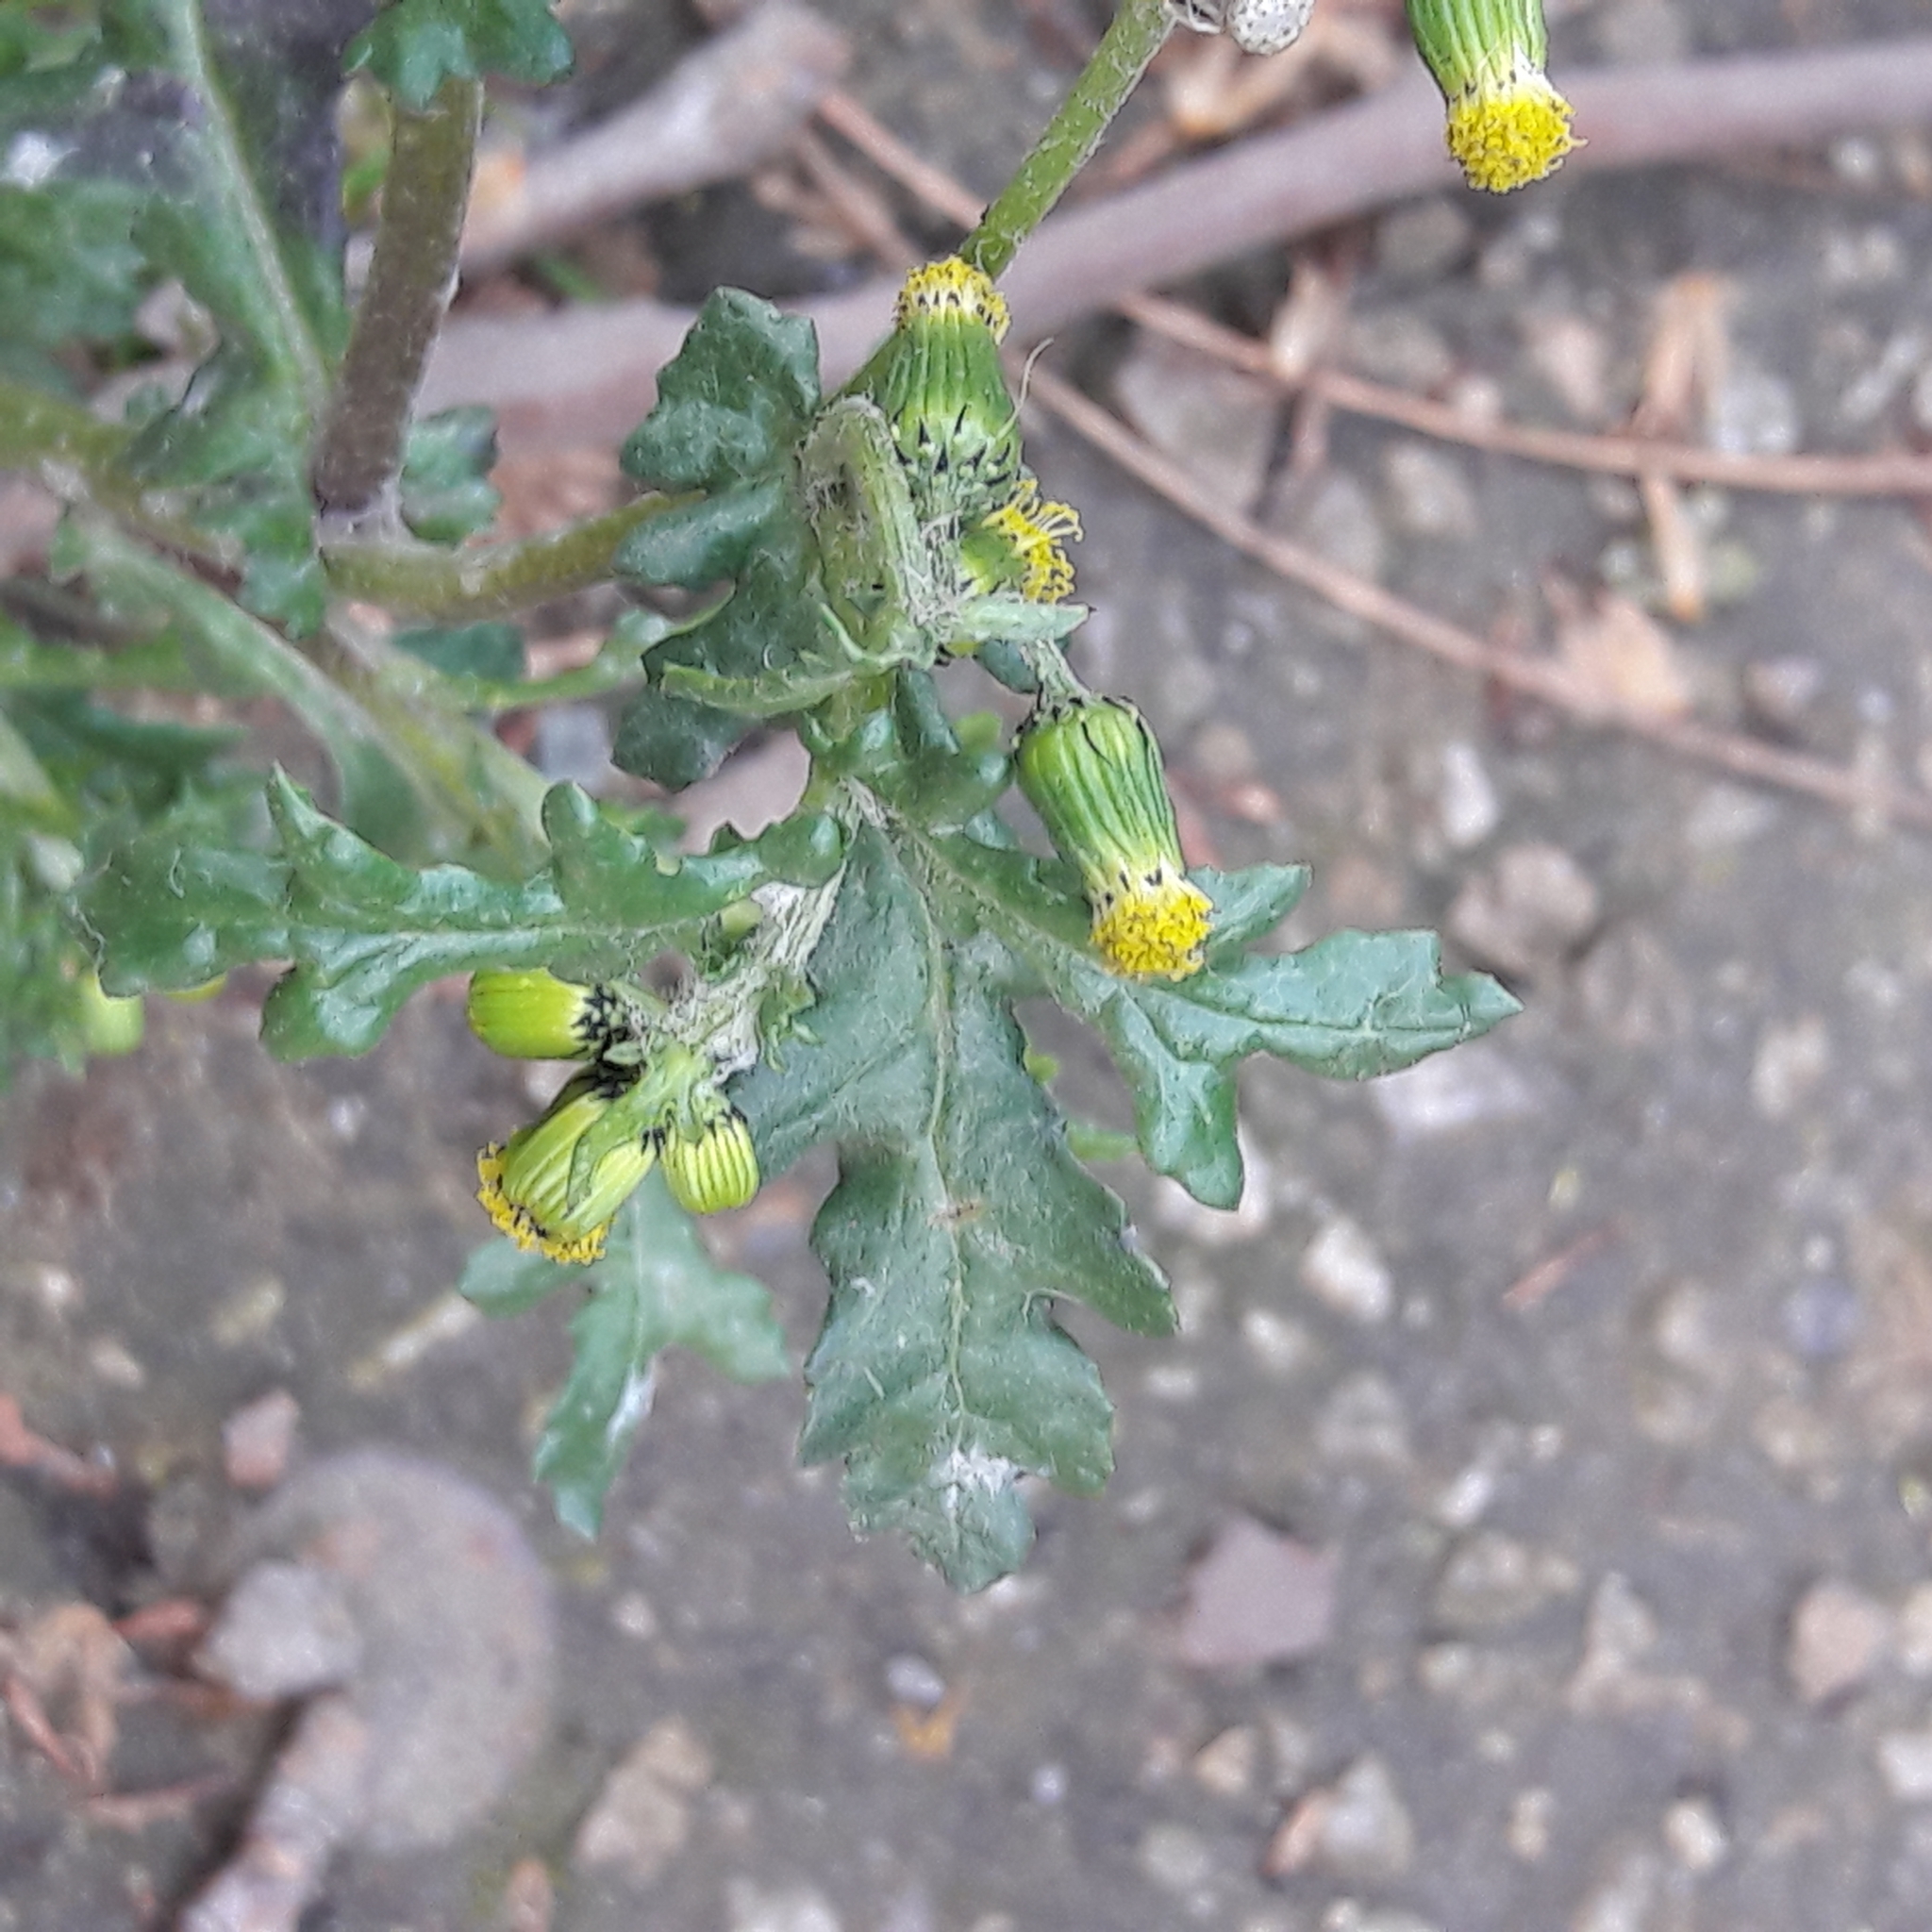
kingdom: Plantae
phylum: Tracheophyta
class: Magnoliopsida
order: Asterales
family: Asteraceae
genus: Senecio
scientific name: Senecio vulgaris
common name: Old-man-in-the-spring
